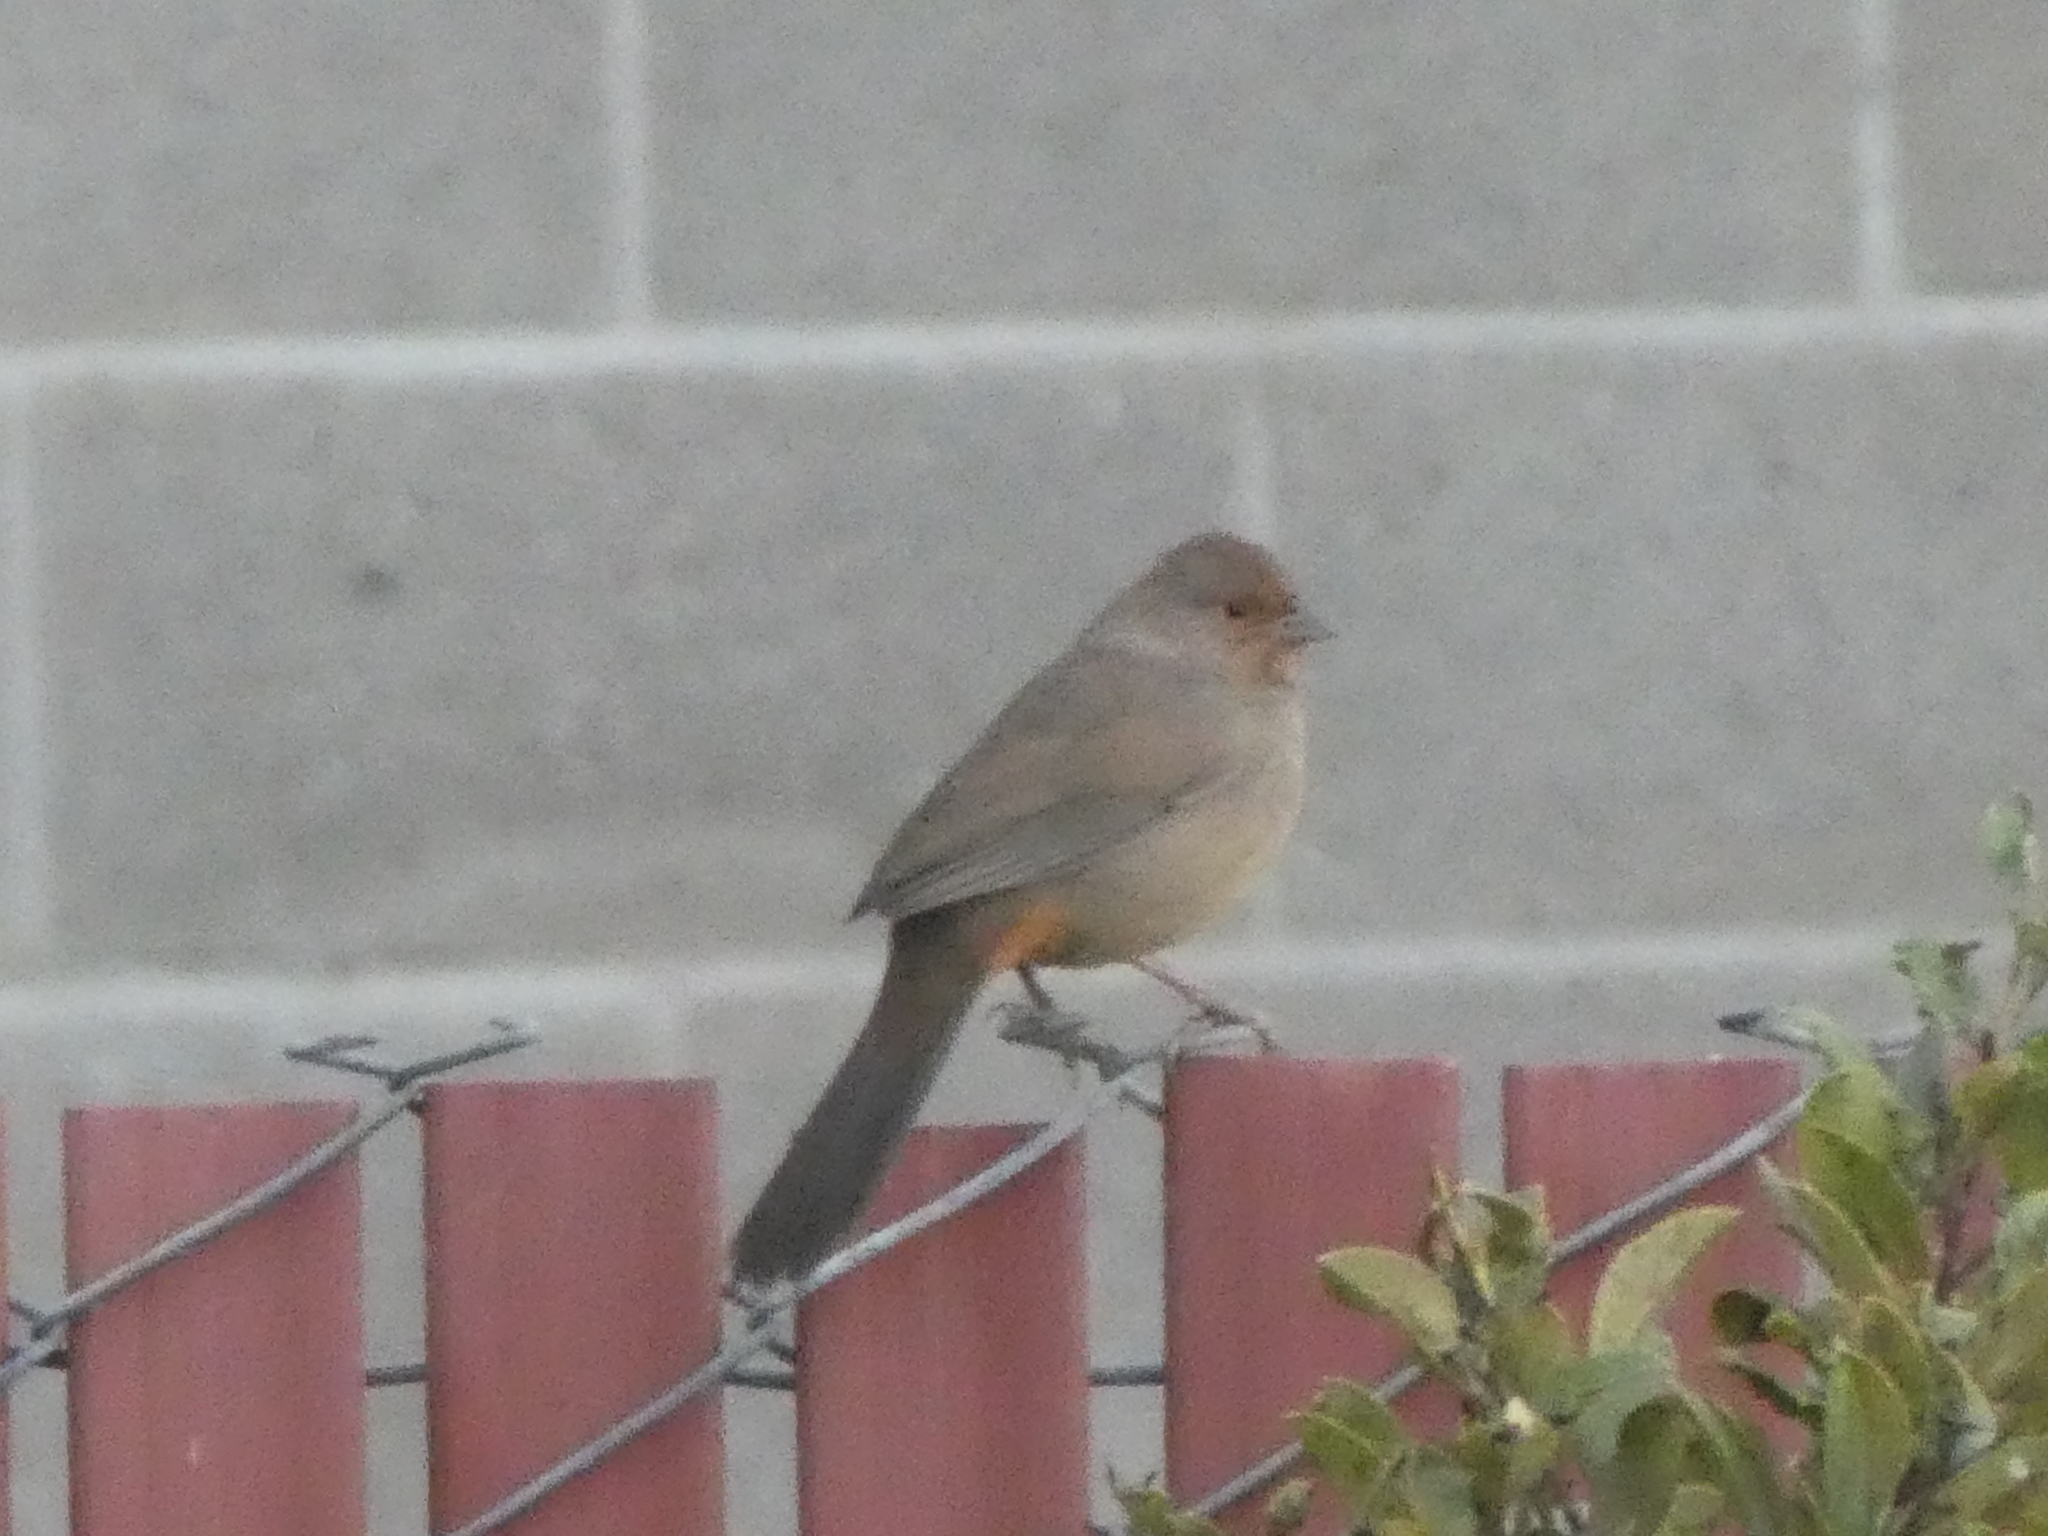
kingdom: Animalia
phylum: Chordata
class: Aves
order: Passeriformes
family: Passerellidae
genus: Melozone
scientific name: Melozone crissalis
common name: California towhee
